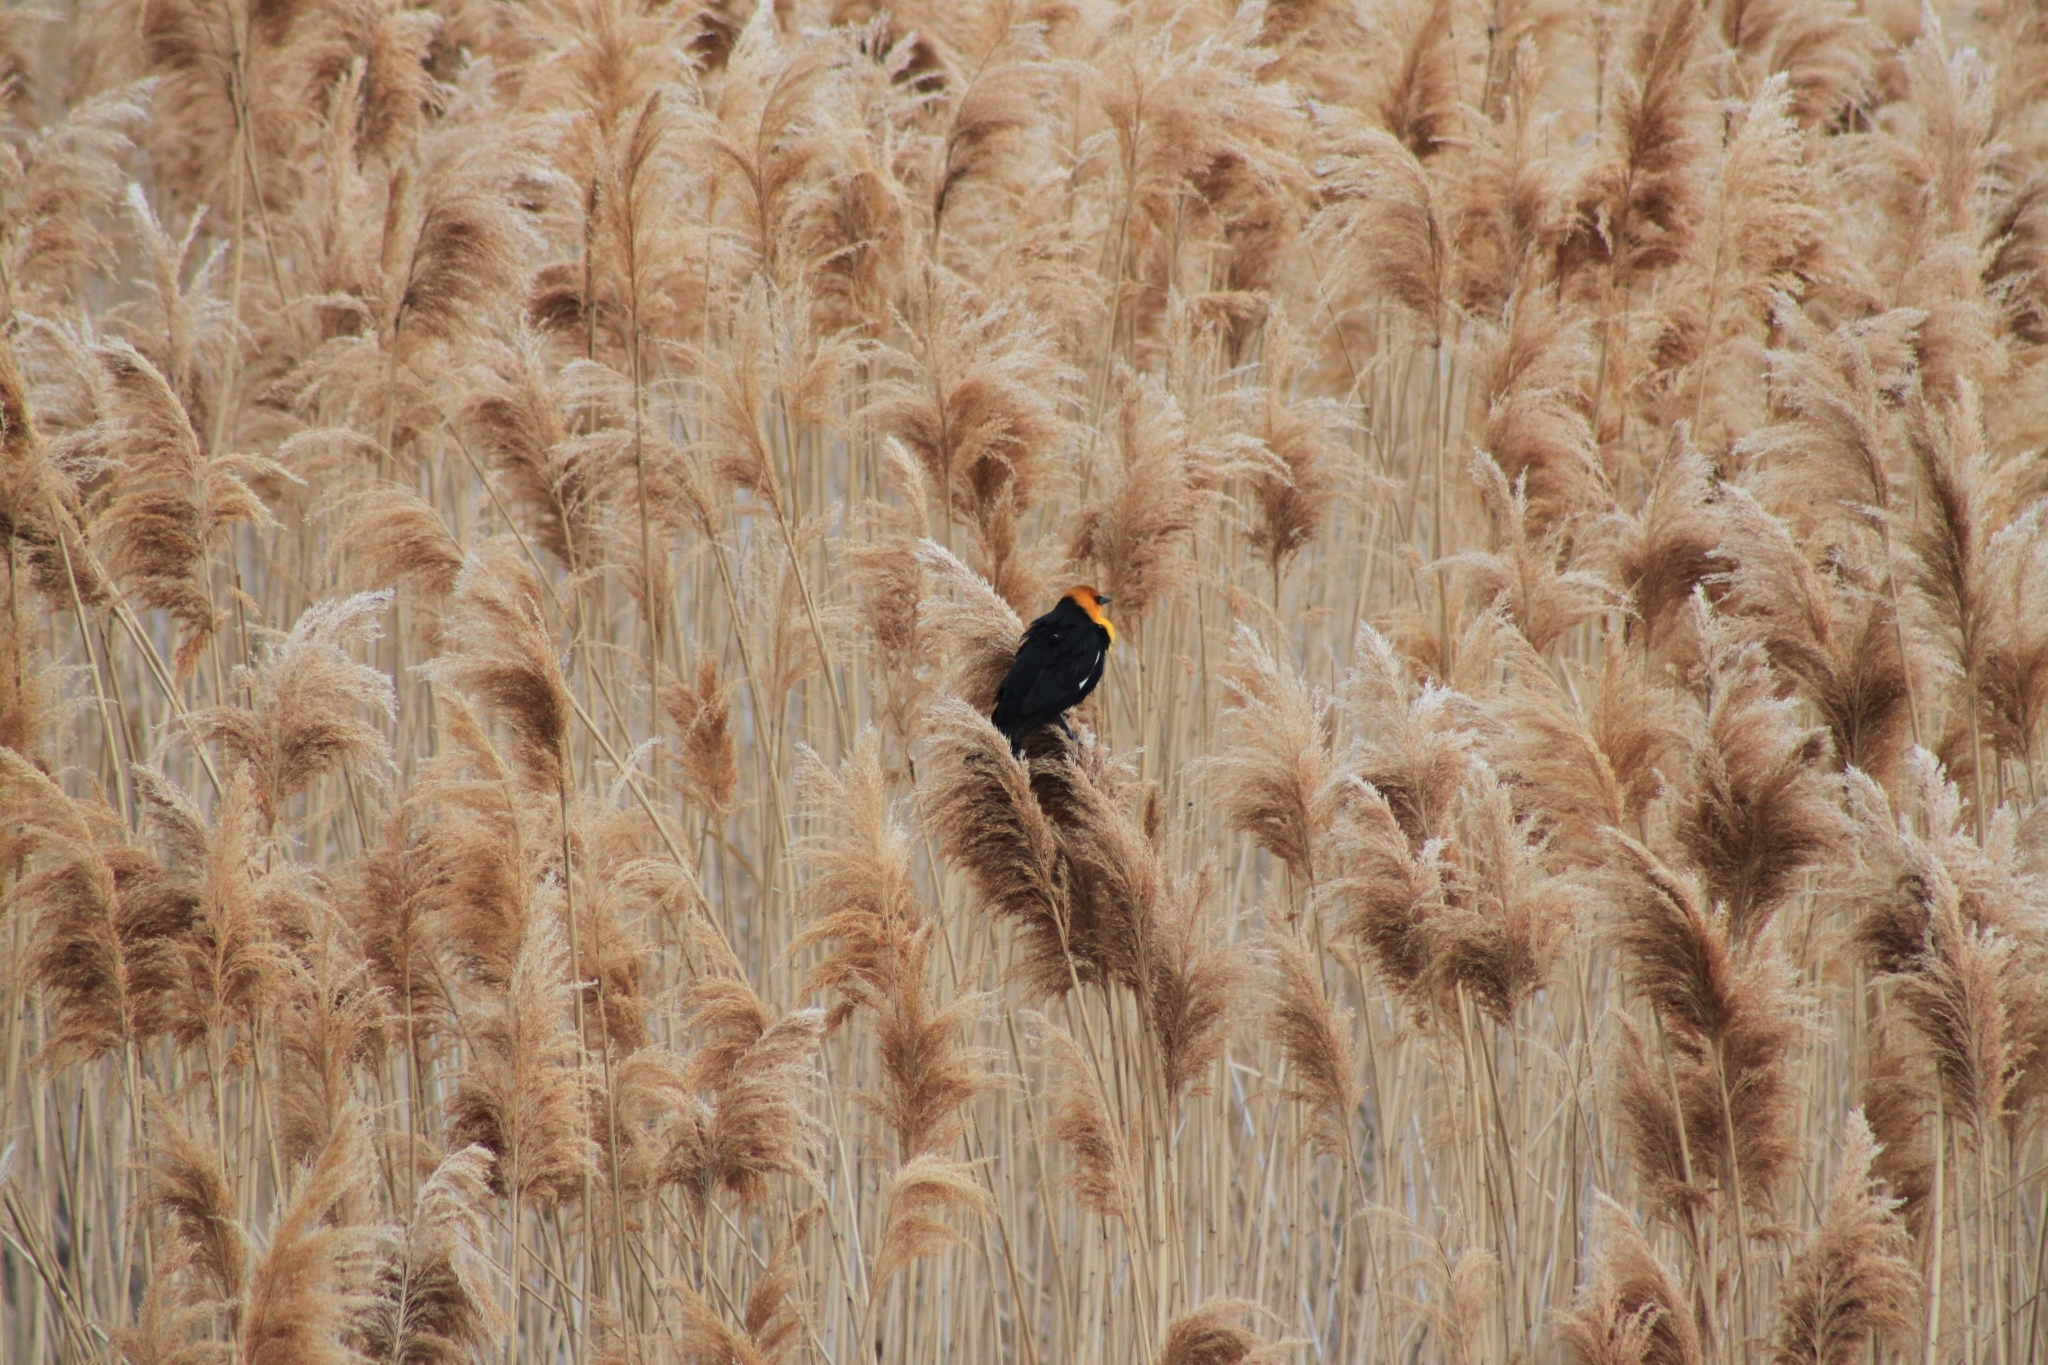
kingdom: Animalia
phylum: Chordata
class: Aves
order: Passeriformes
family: Icteridae
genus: Xanthocephalus
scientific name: Xanthocephalus xanthocephalus
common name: Yellow-headed blackbird
